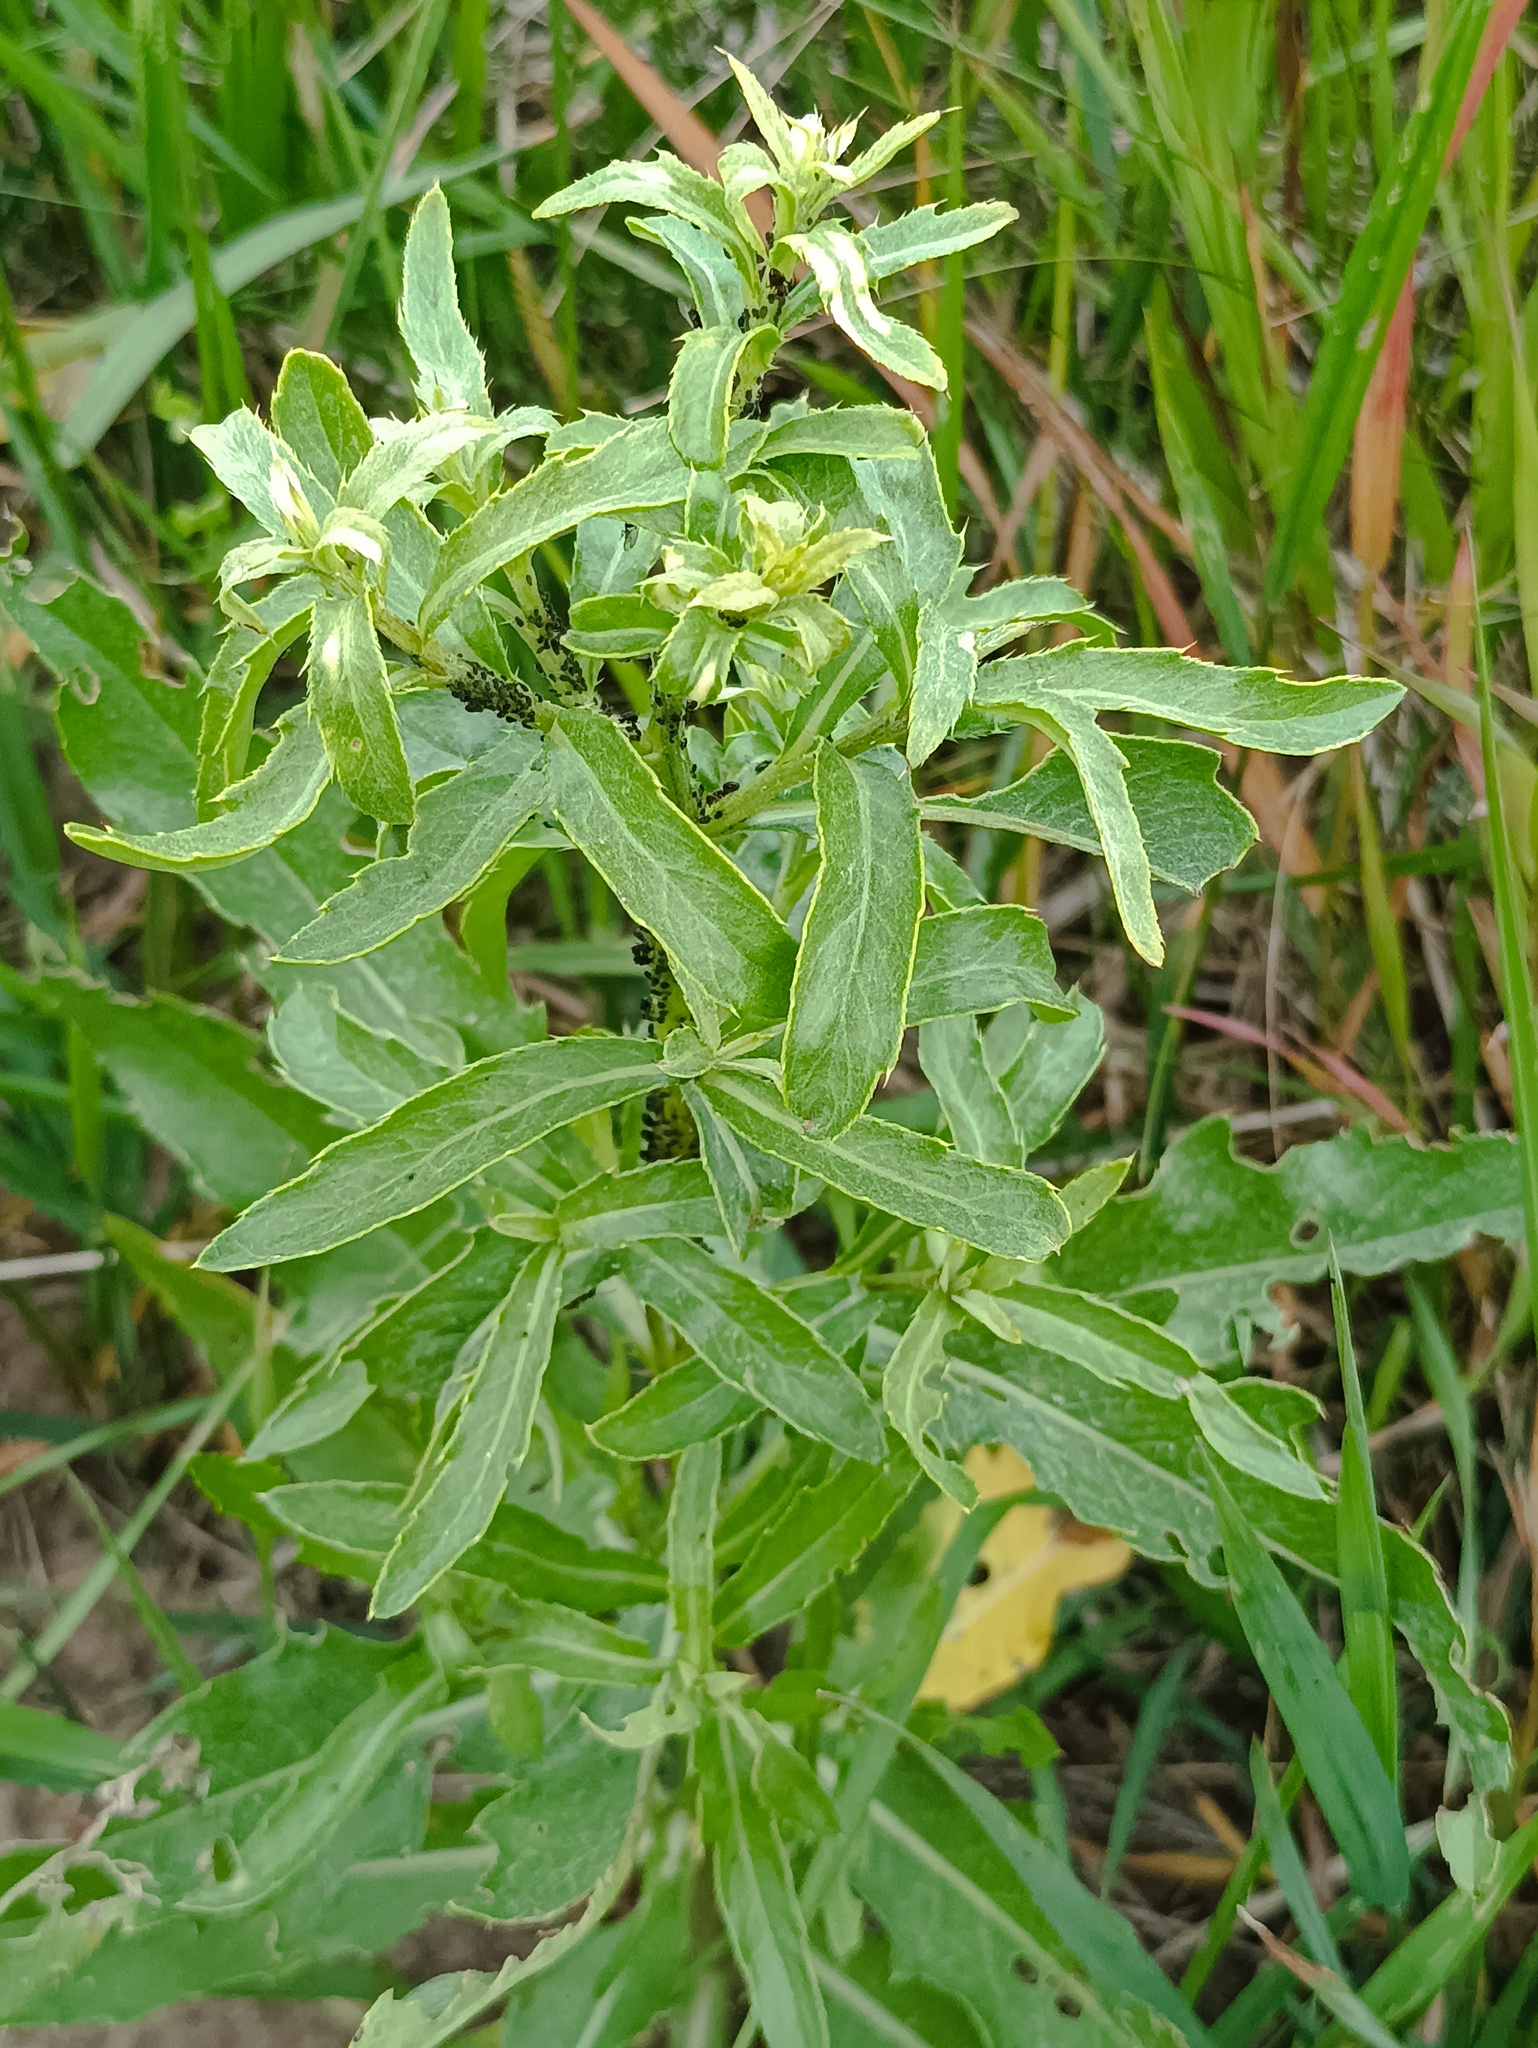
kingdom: Plantae
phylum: Tracheophyta
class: Magnoliopsida
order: Asterales
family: Asteraceae
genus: Cirsium
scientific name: Cirsium arvense
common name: Creeping thistle
